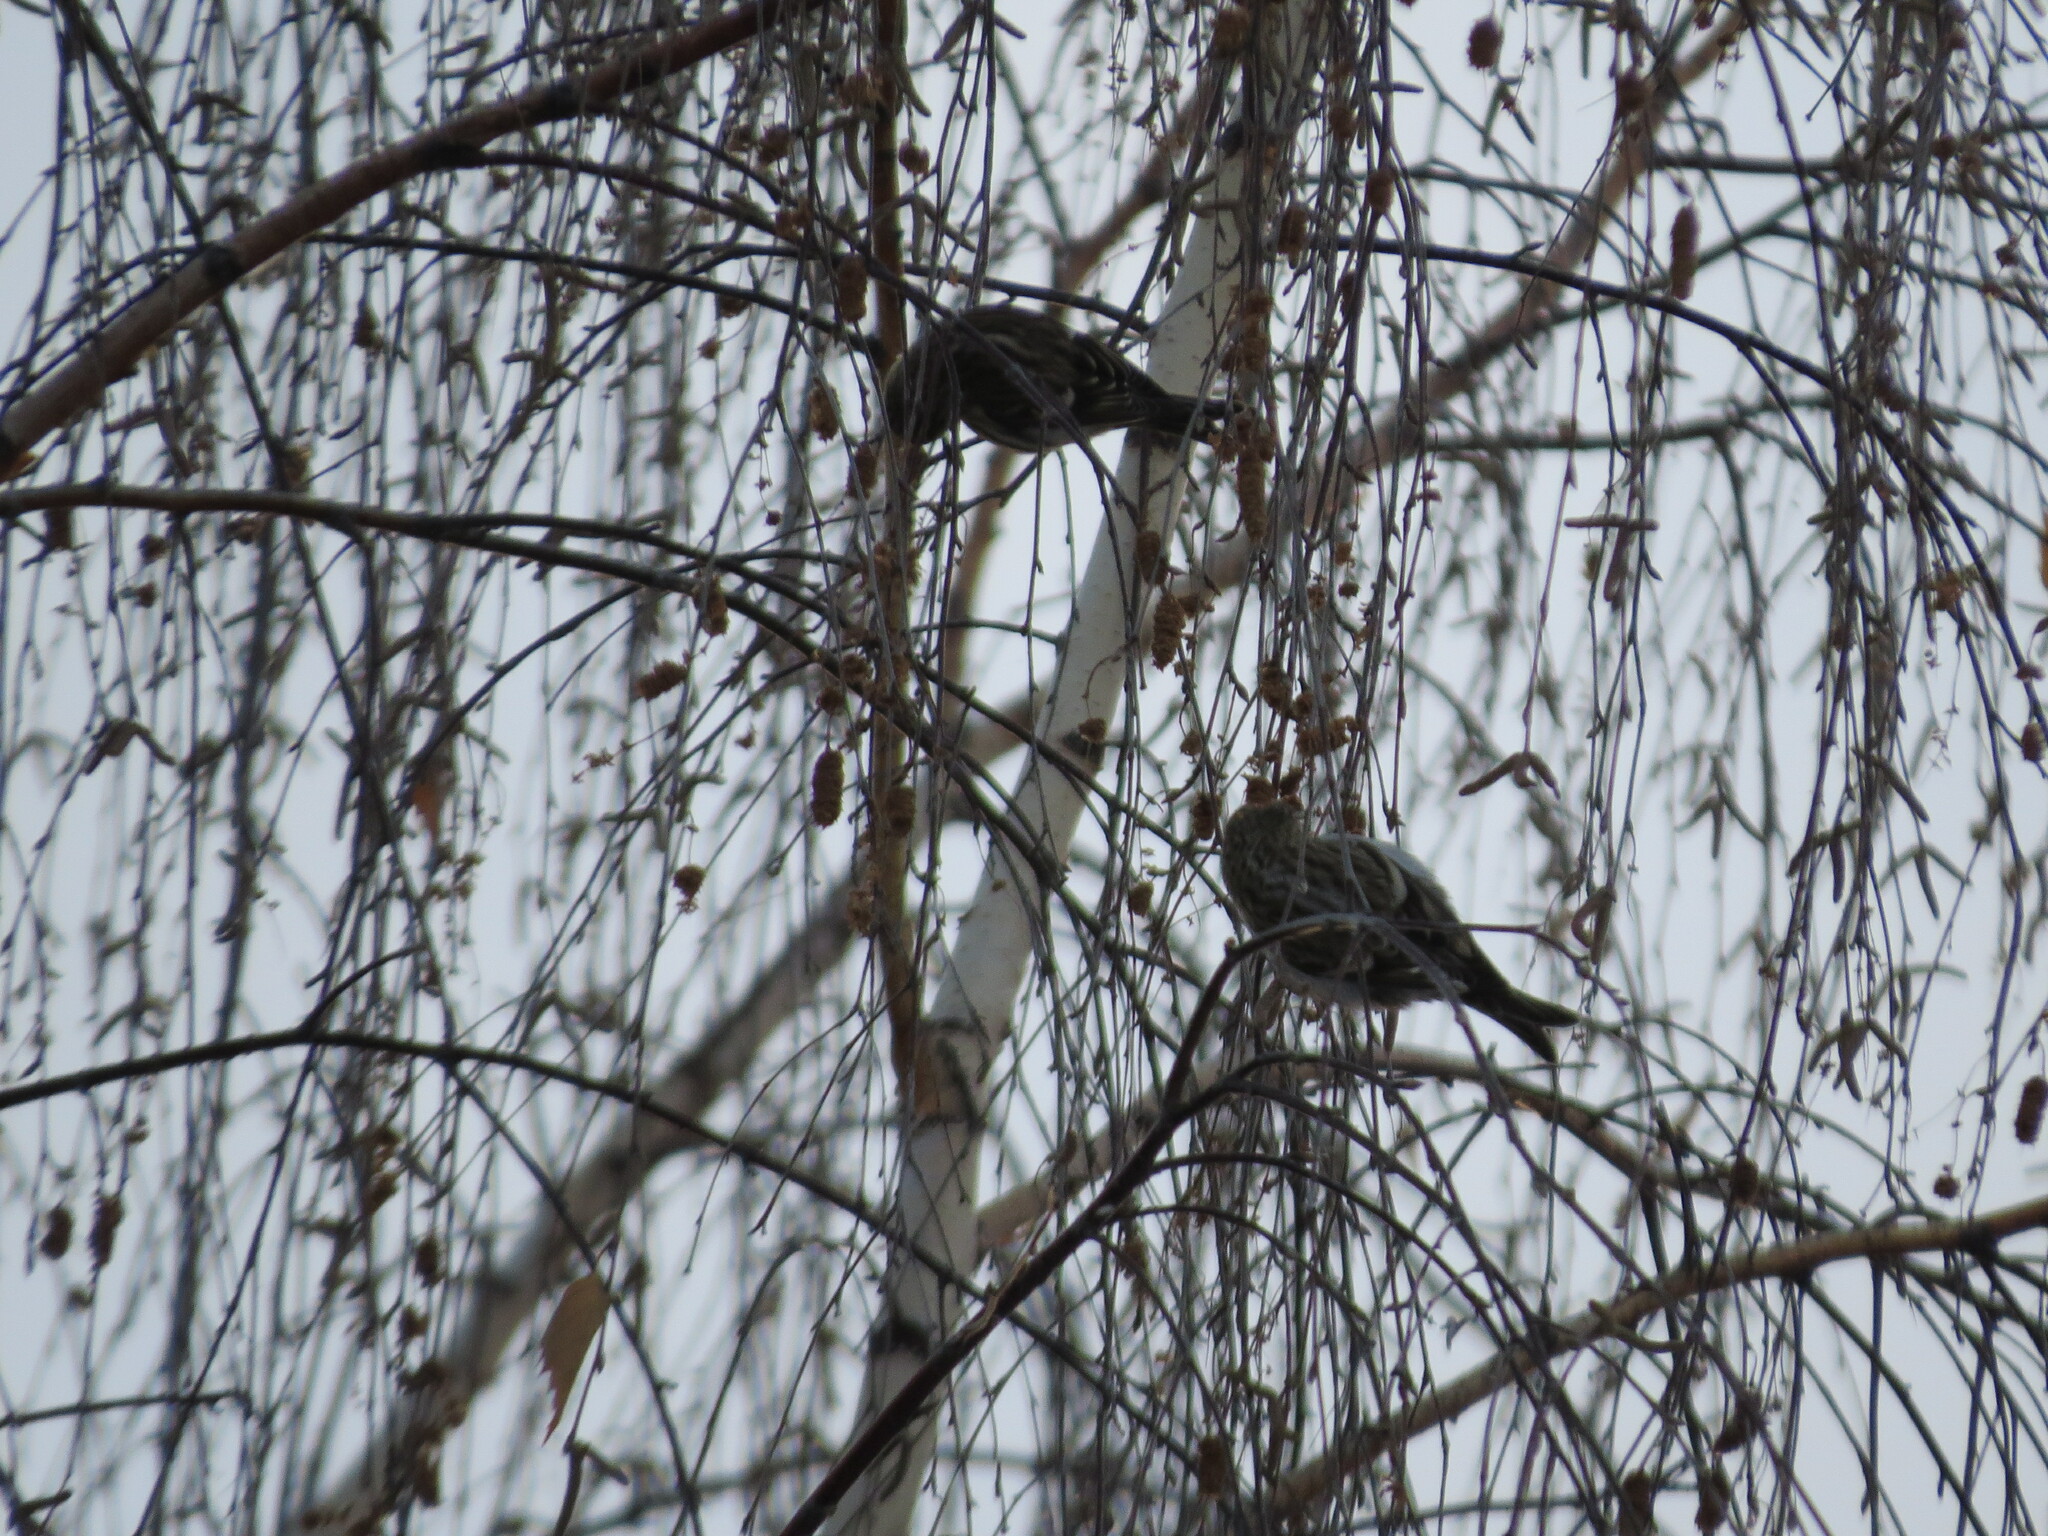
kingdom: Animalia
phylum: Chordata
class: Aves
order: Passeriformes
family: Fringillidae
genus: Acanthis
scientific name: Acanthis flammea
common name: Common redpoll
